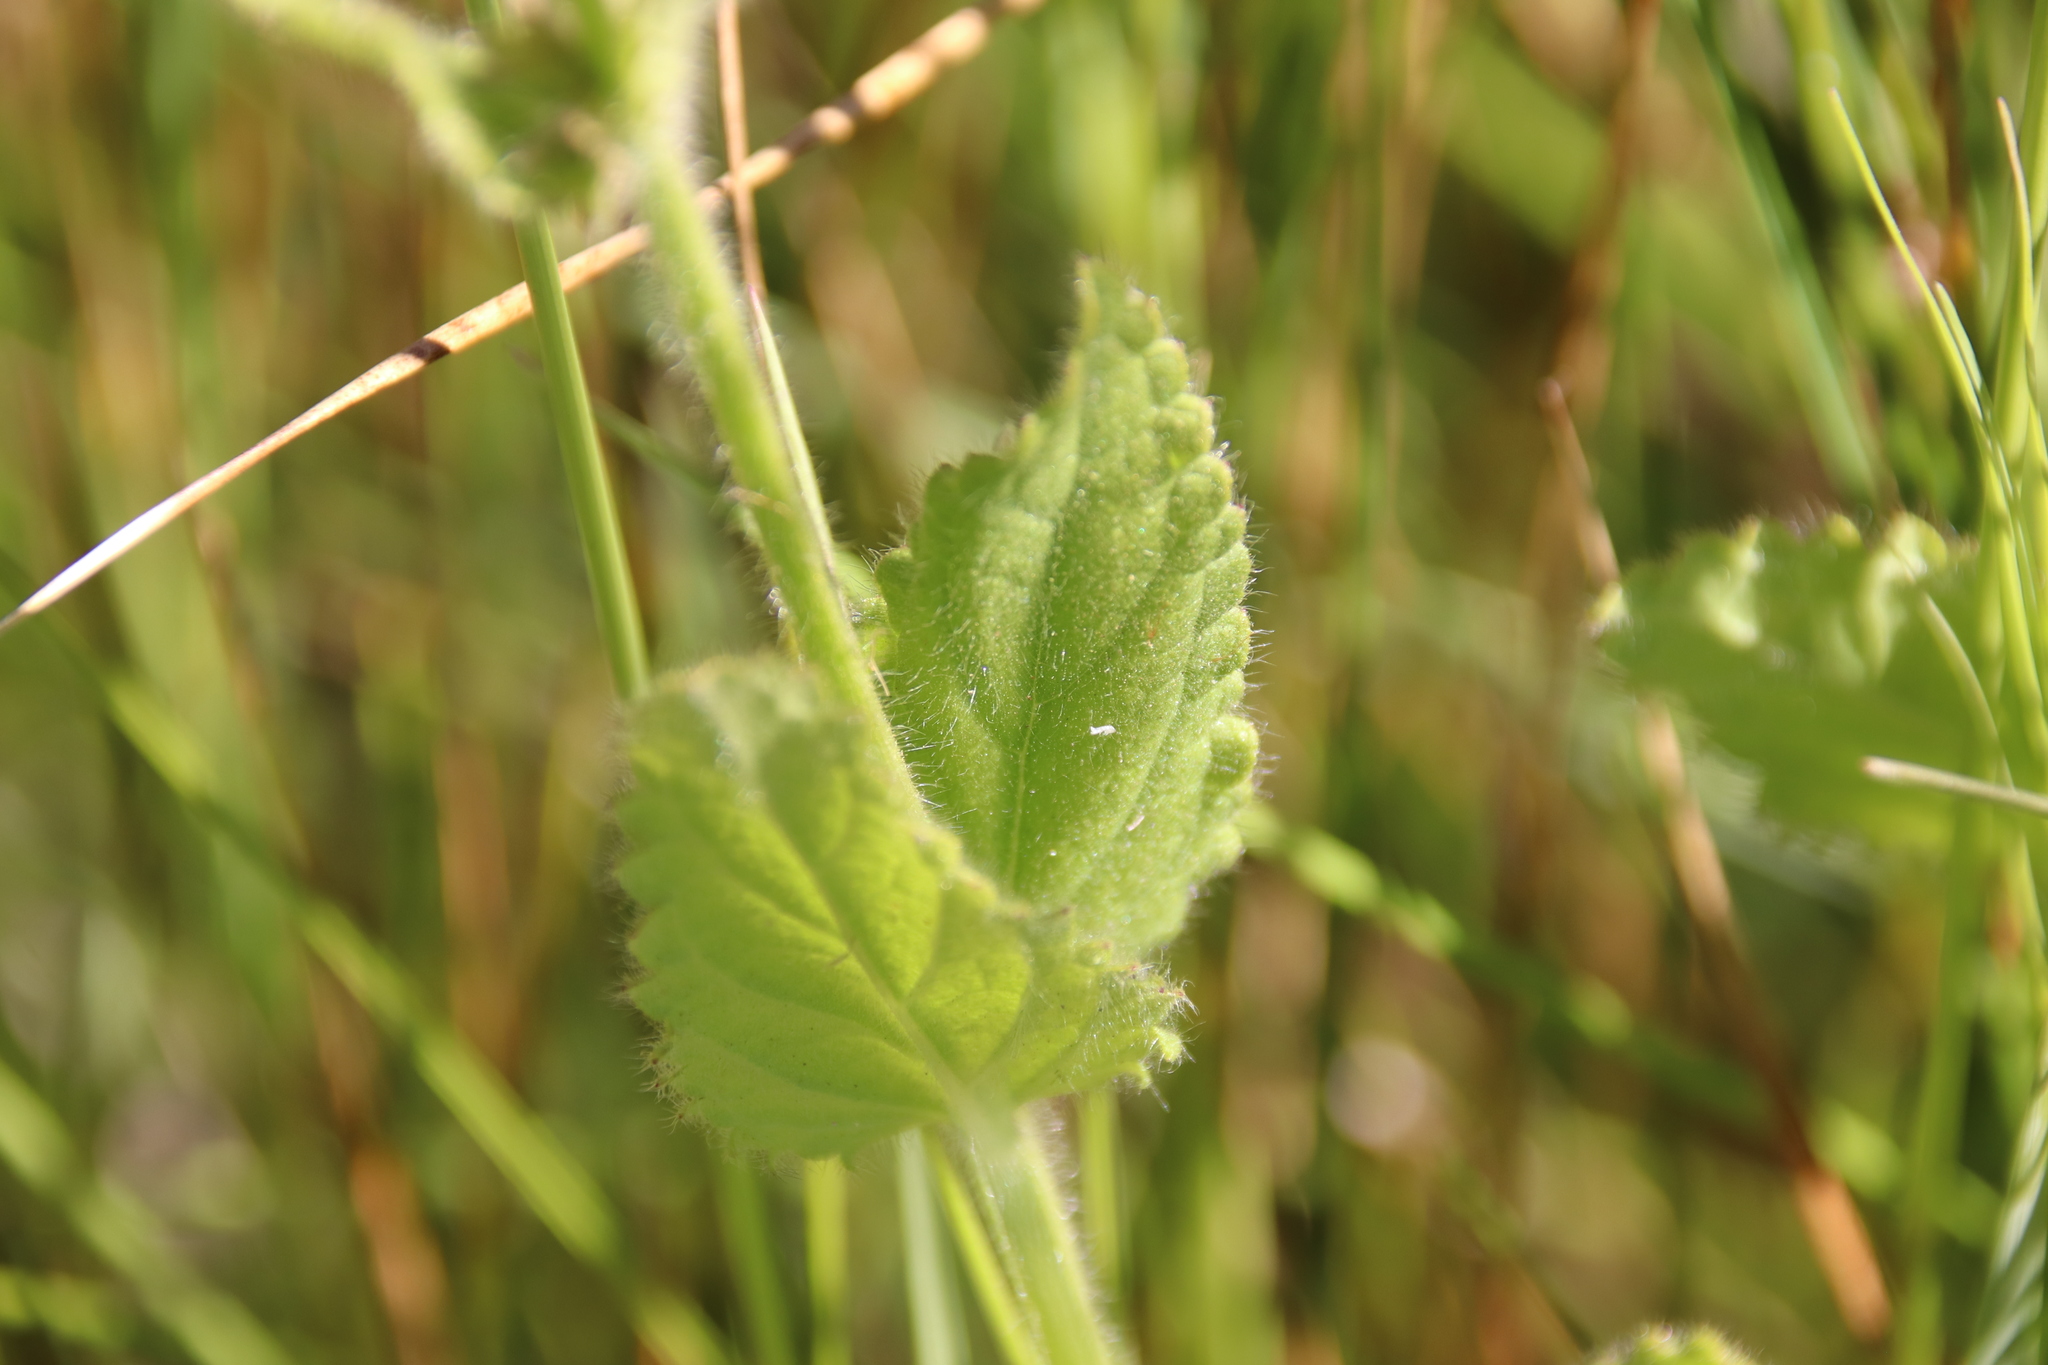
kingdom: Plantae
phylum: Tracheophyta
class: Magnoliopsida
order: Lamiales
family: Lamiaceae
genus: Stachys
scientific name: Stachys stebbinsii
